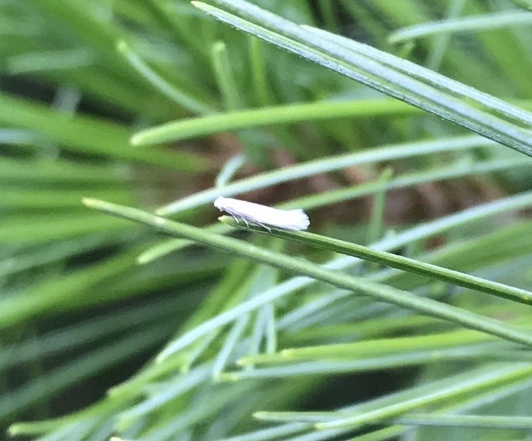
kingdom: Animalia
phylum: Arthropoda
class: Insecta
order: Lepidoptera
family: Yponomeutidae
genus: Ocnerostoma
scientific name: Ocnerostoma strobivorum
